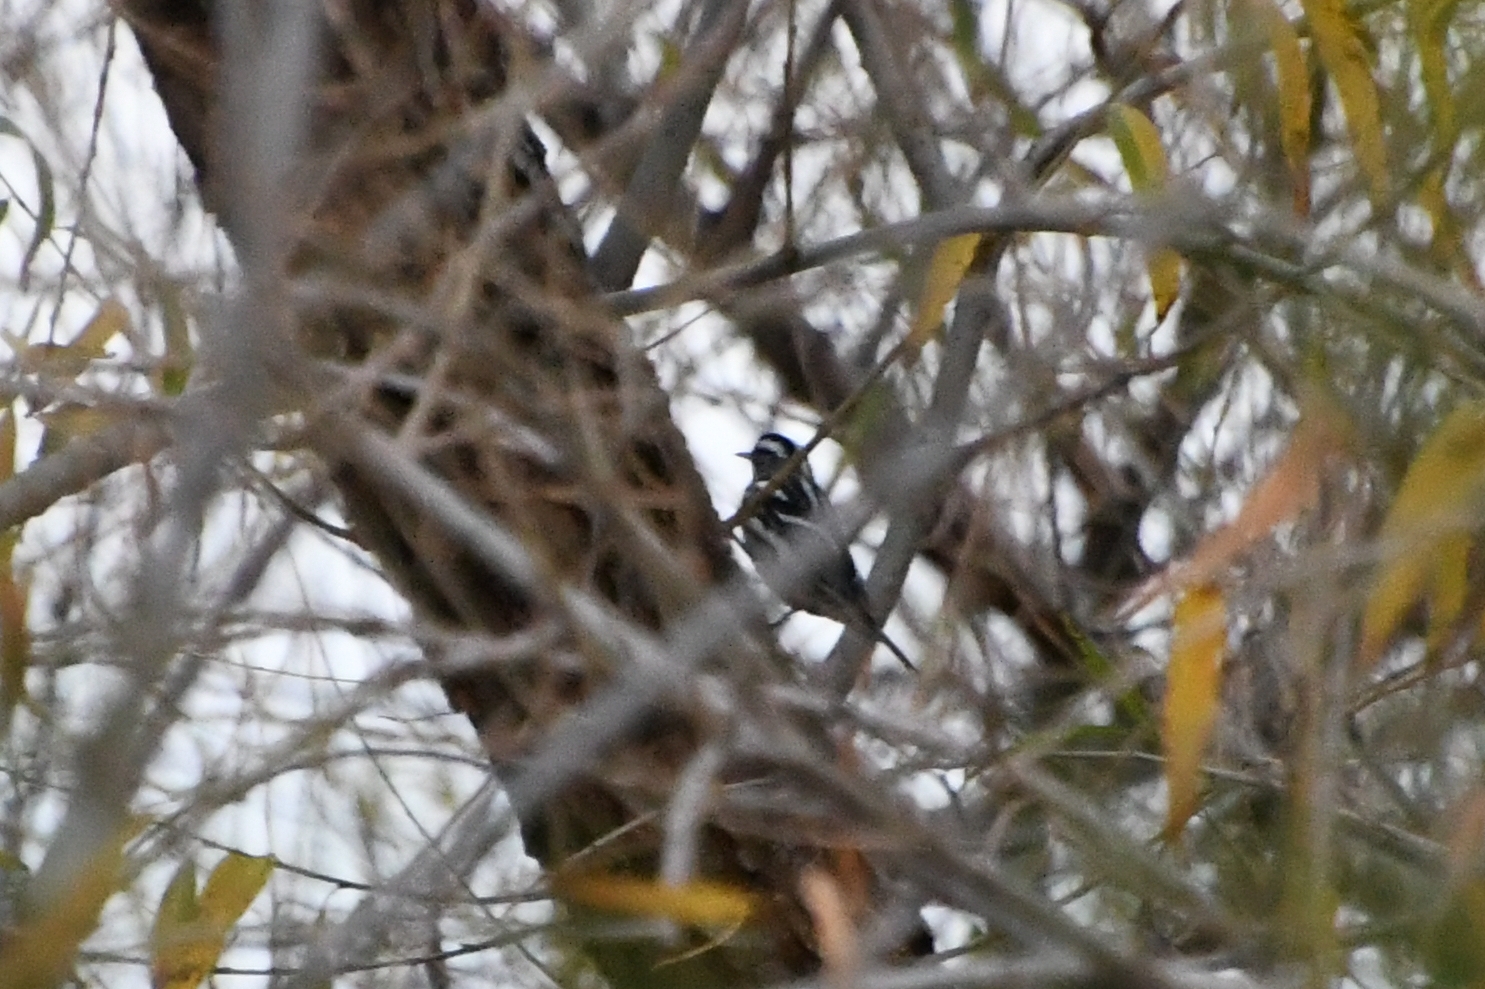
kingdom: Animalia
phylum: Chordata
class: Aves
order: Passeriformes
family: Parulidae
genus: Mniotilta
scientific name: Mniotilta varia
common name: Black-and-white warbler
